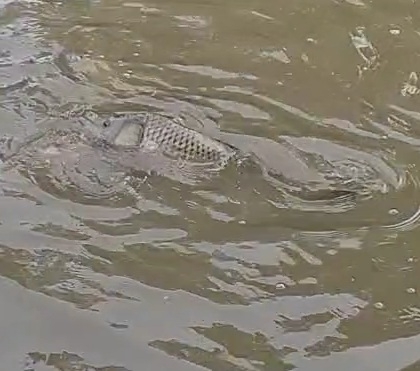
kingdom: Animalia
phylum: Chordata
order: Cypriniformes
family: Cyprinidae
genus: Cyprinus
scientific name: Cyprinus carpio
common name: Common carp
